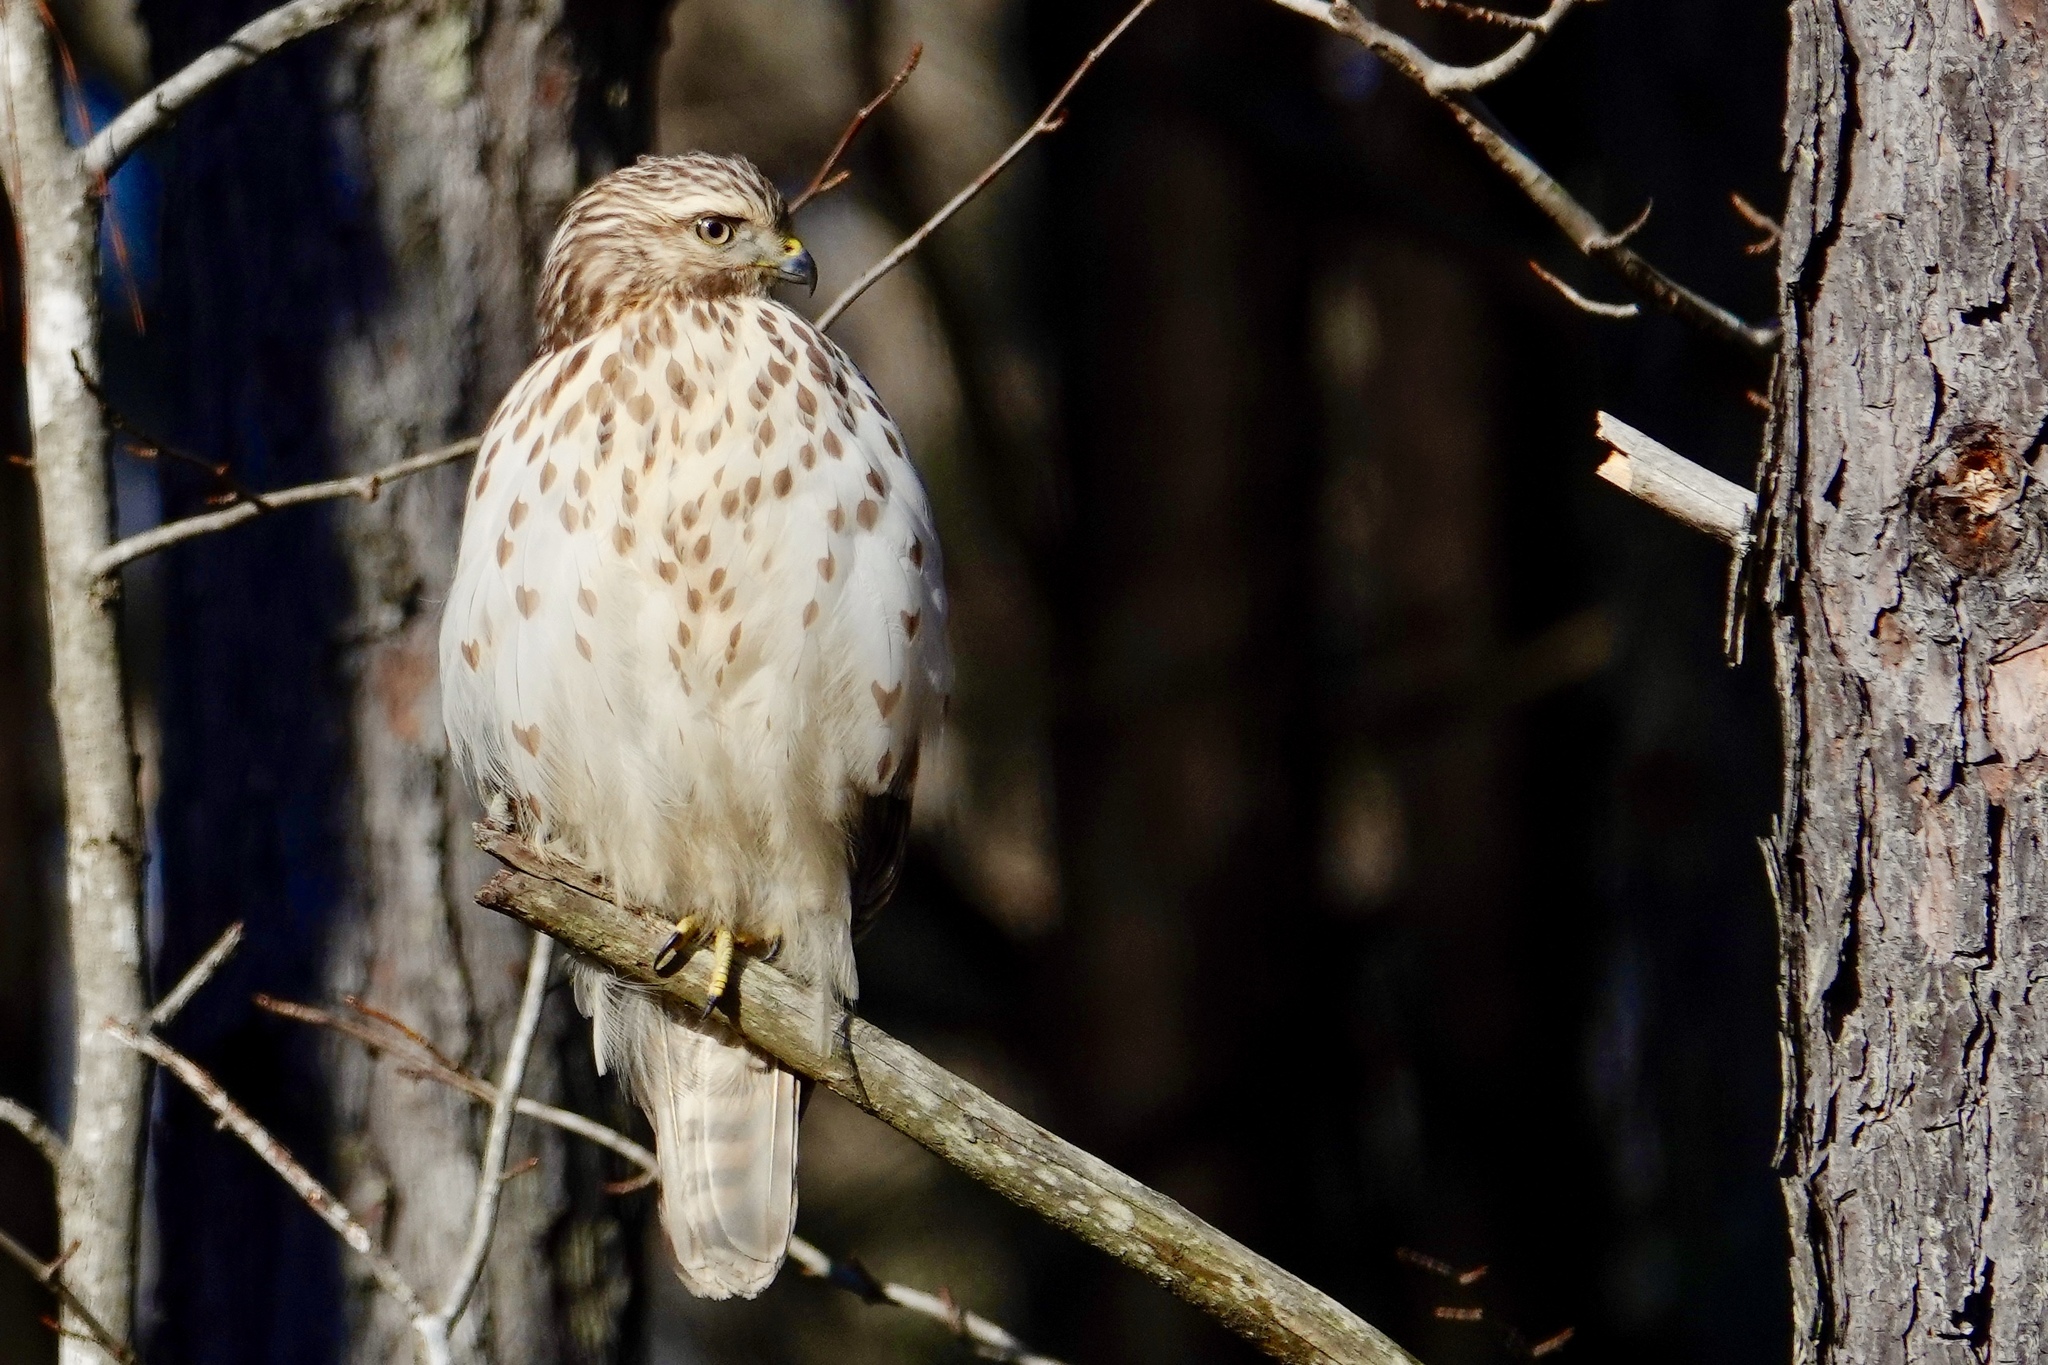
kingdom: Animalia
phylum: Chordata
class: Aves
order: Accipitriformes
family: Accipitridae
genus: Buteo
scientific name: Buteo lineatus
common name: Red-shouldered hawk
